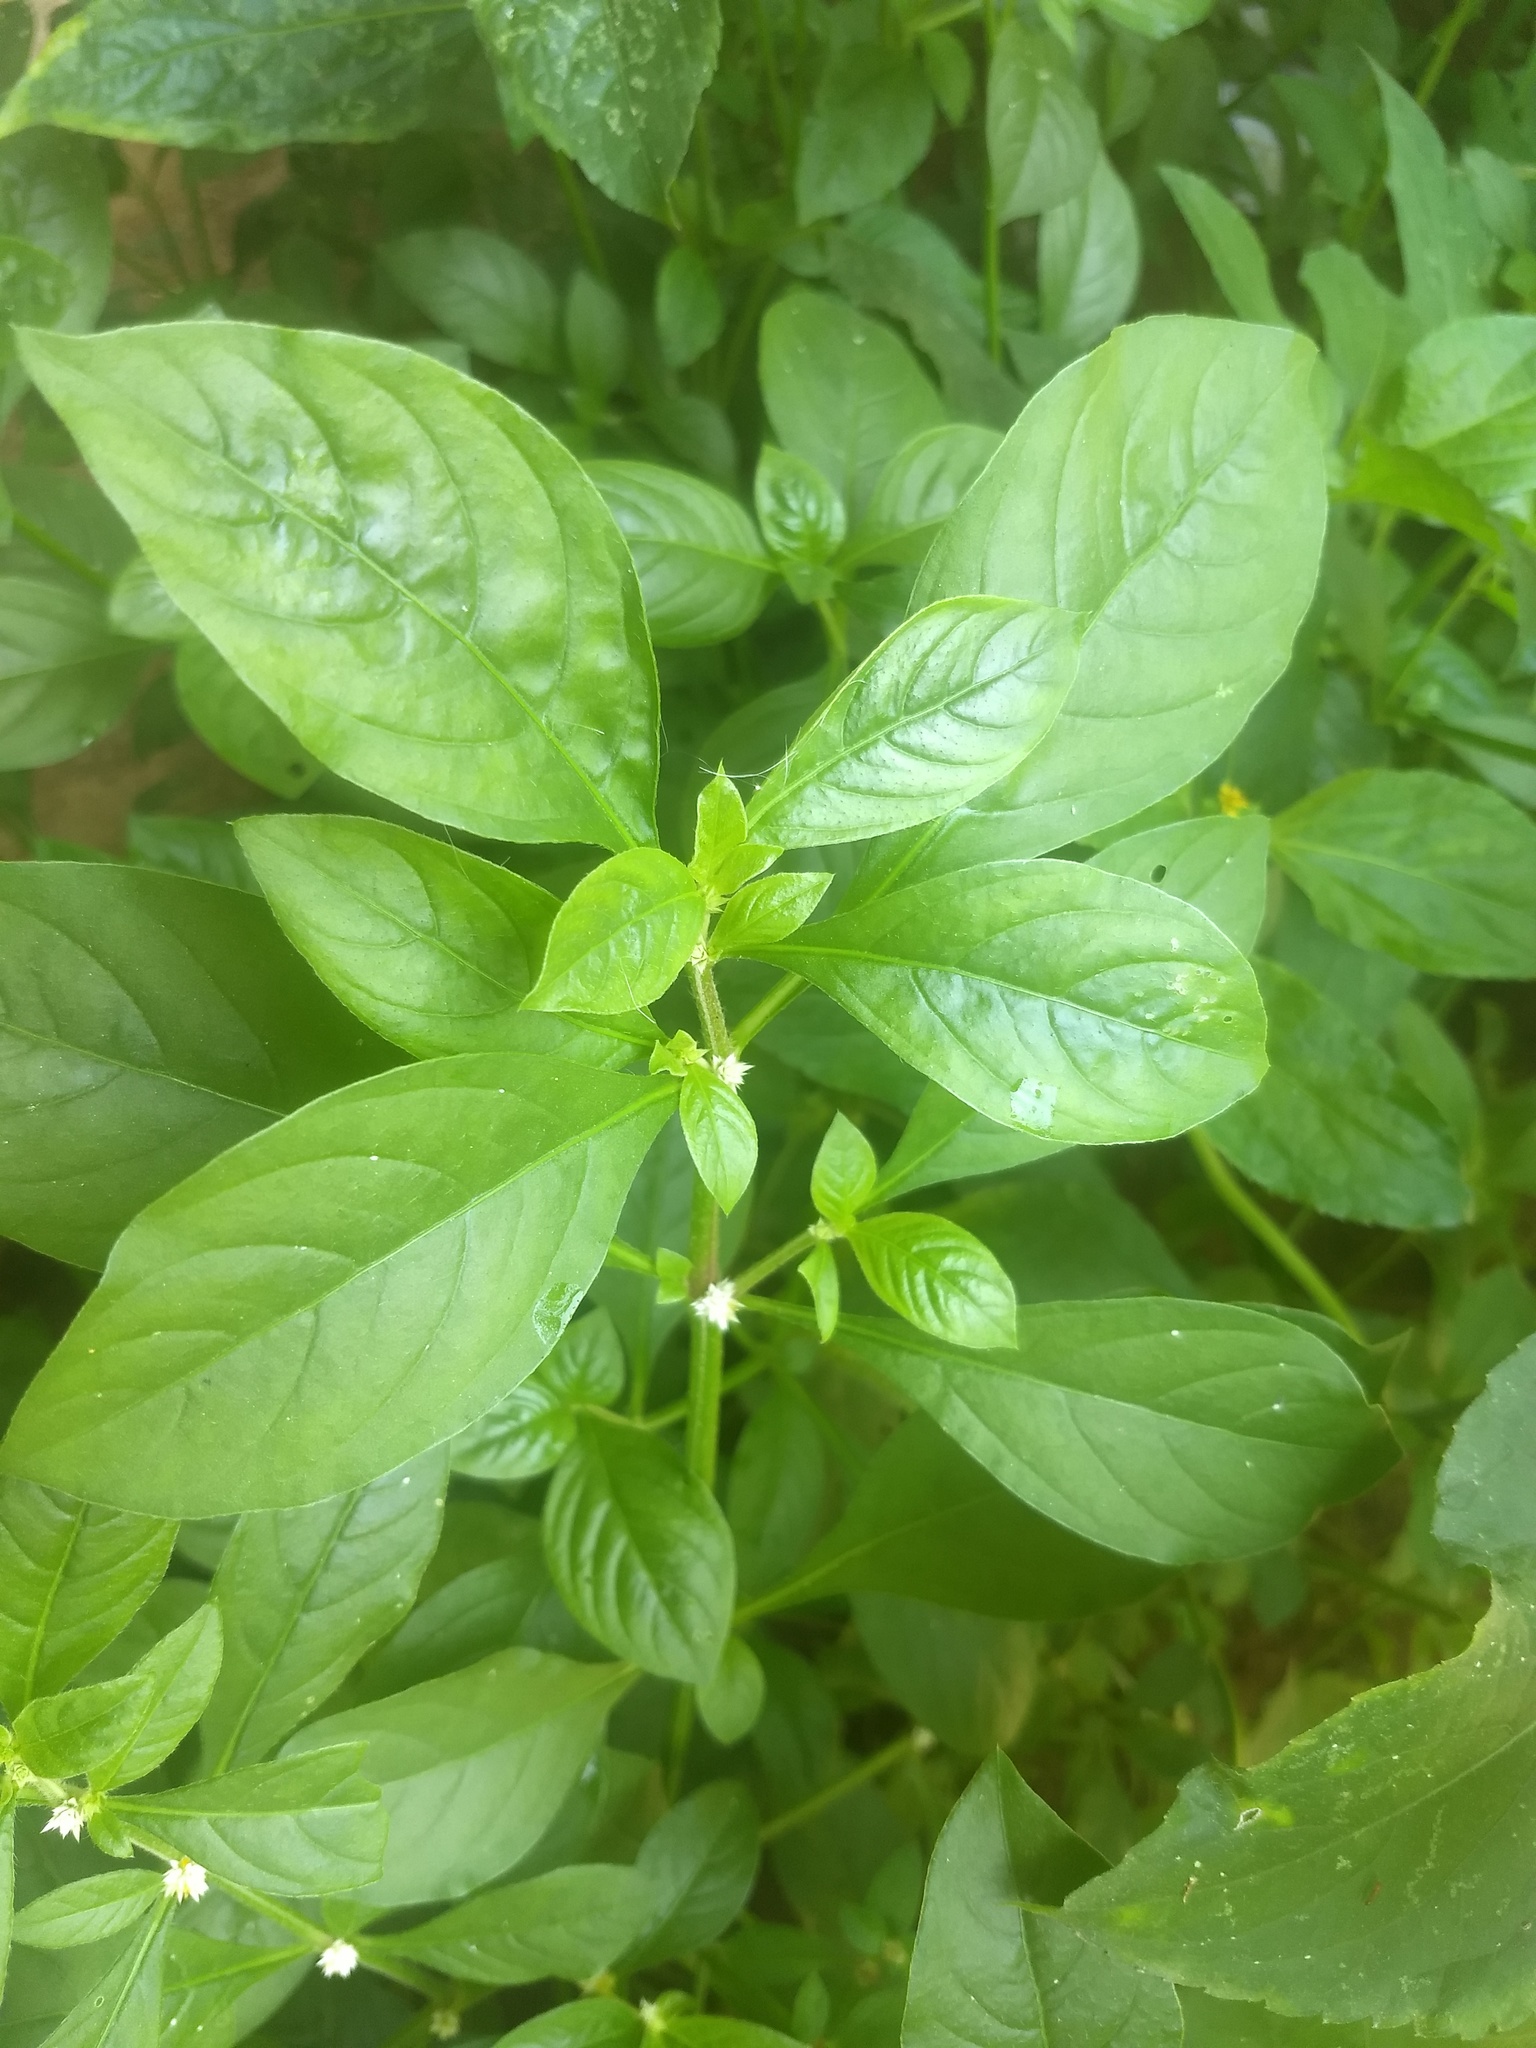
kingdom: Plantae
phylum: Tracheophyta
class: Magnoliopsida
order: Caryophyllales
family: Amaranthaceae
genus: Alternanthera
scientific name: Alternanthera ficoidea
